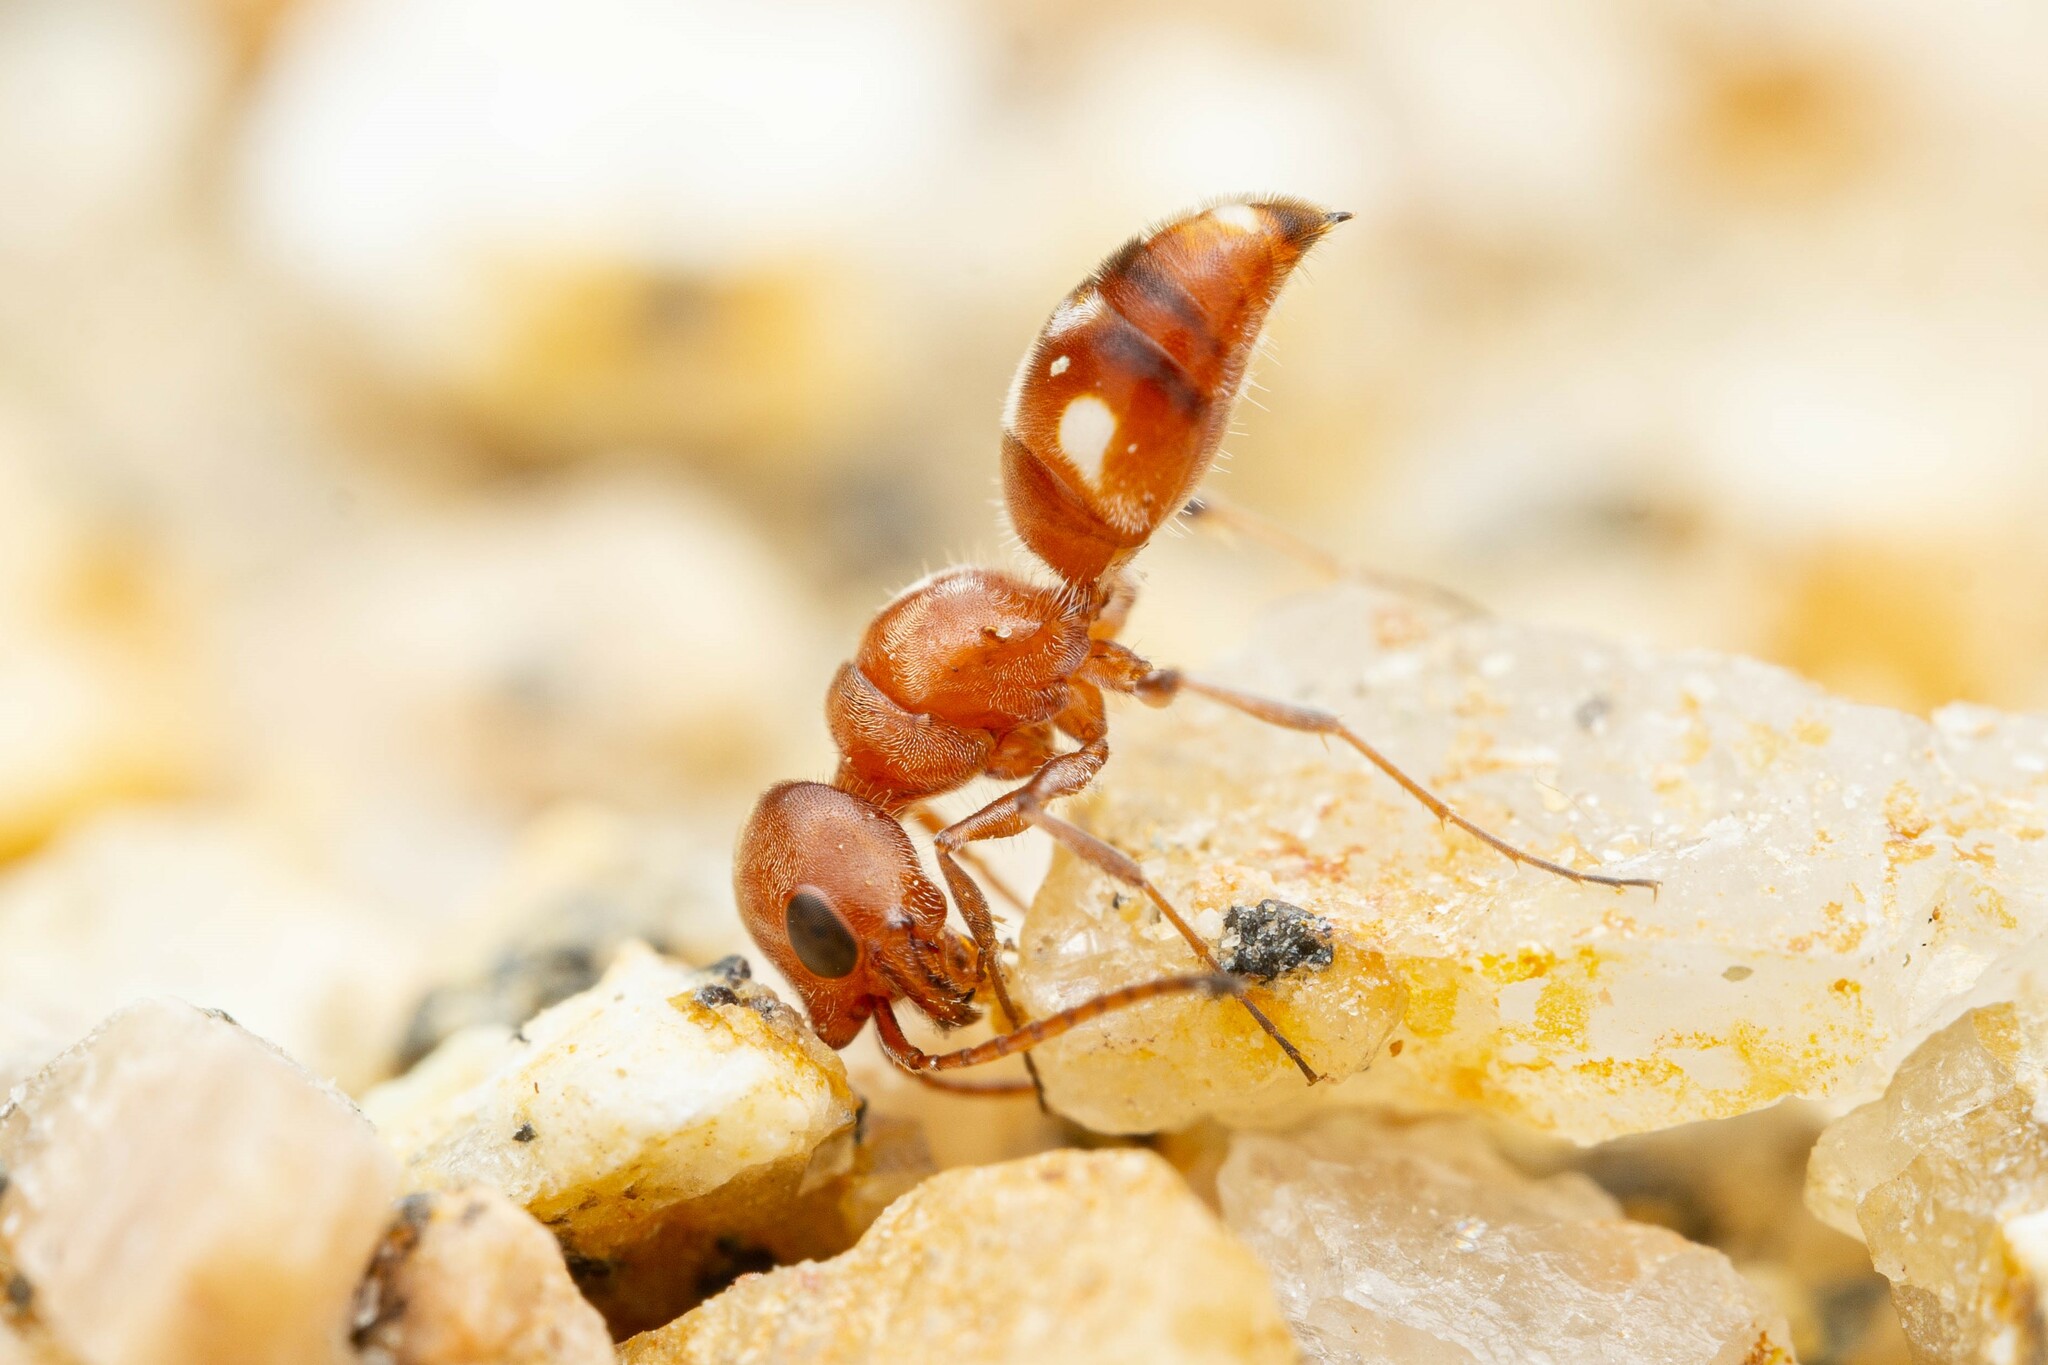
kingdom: Animalia
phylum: Arthropoda
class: Insecta
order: Hymenoptera
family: Myrmosidae
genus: Myrmosula
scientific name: Myrmosula
